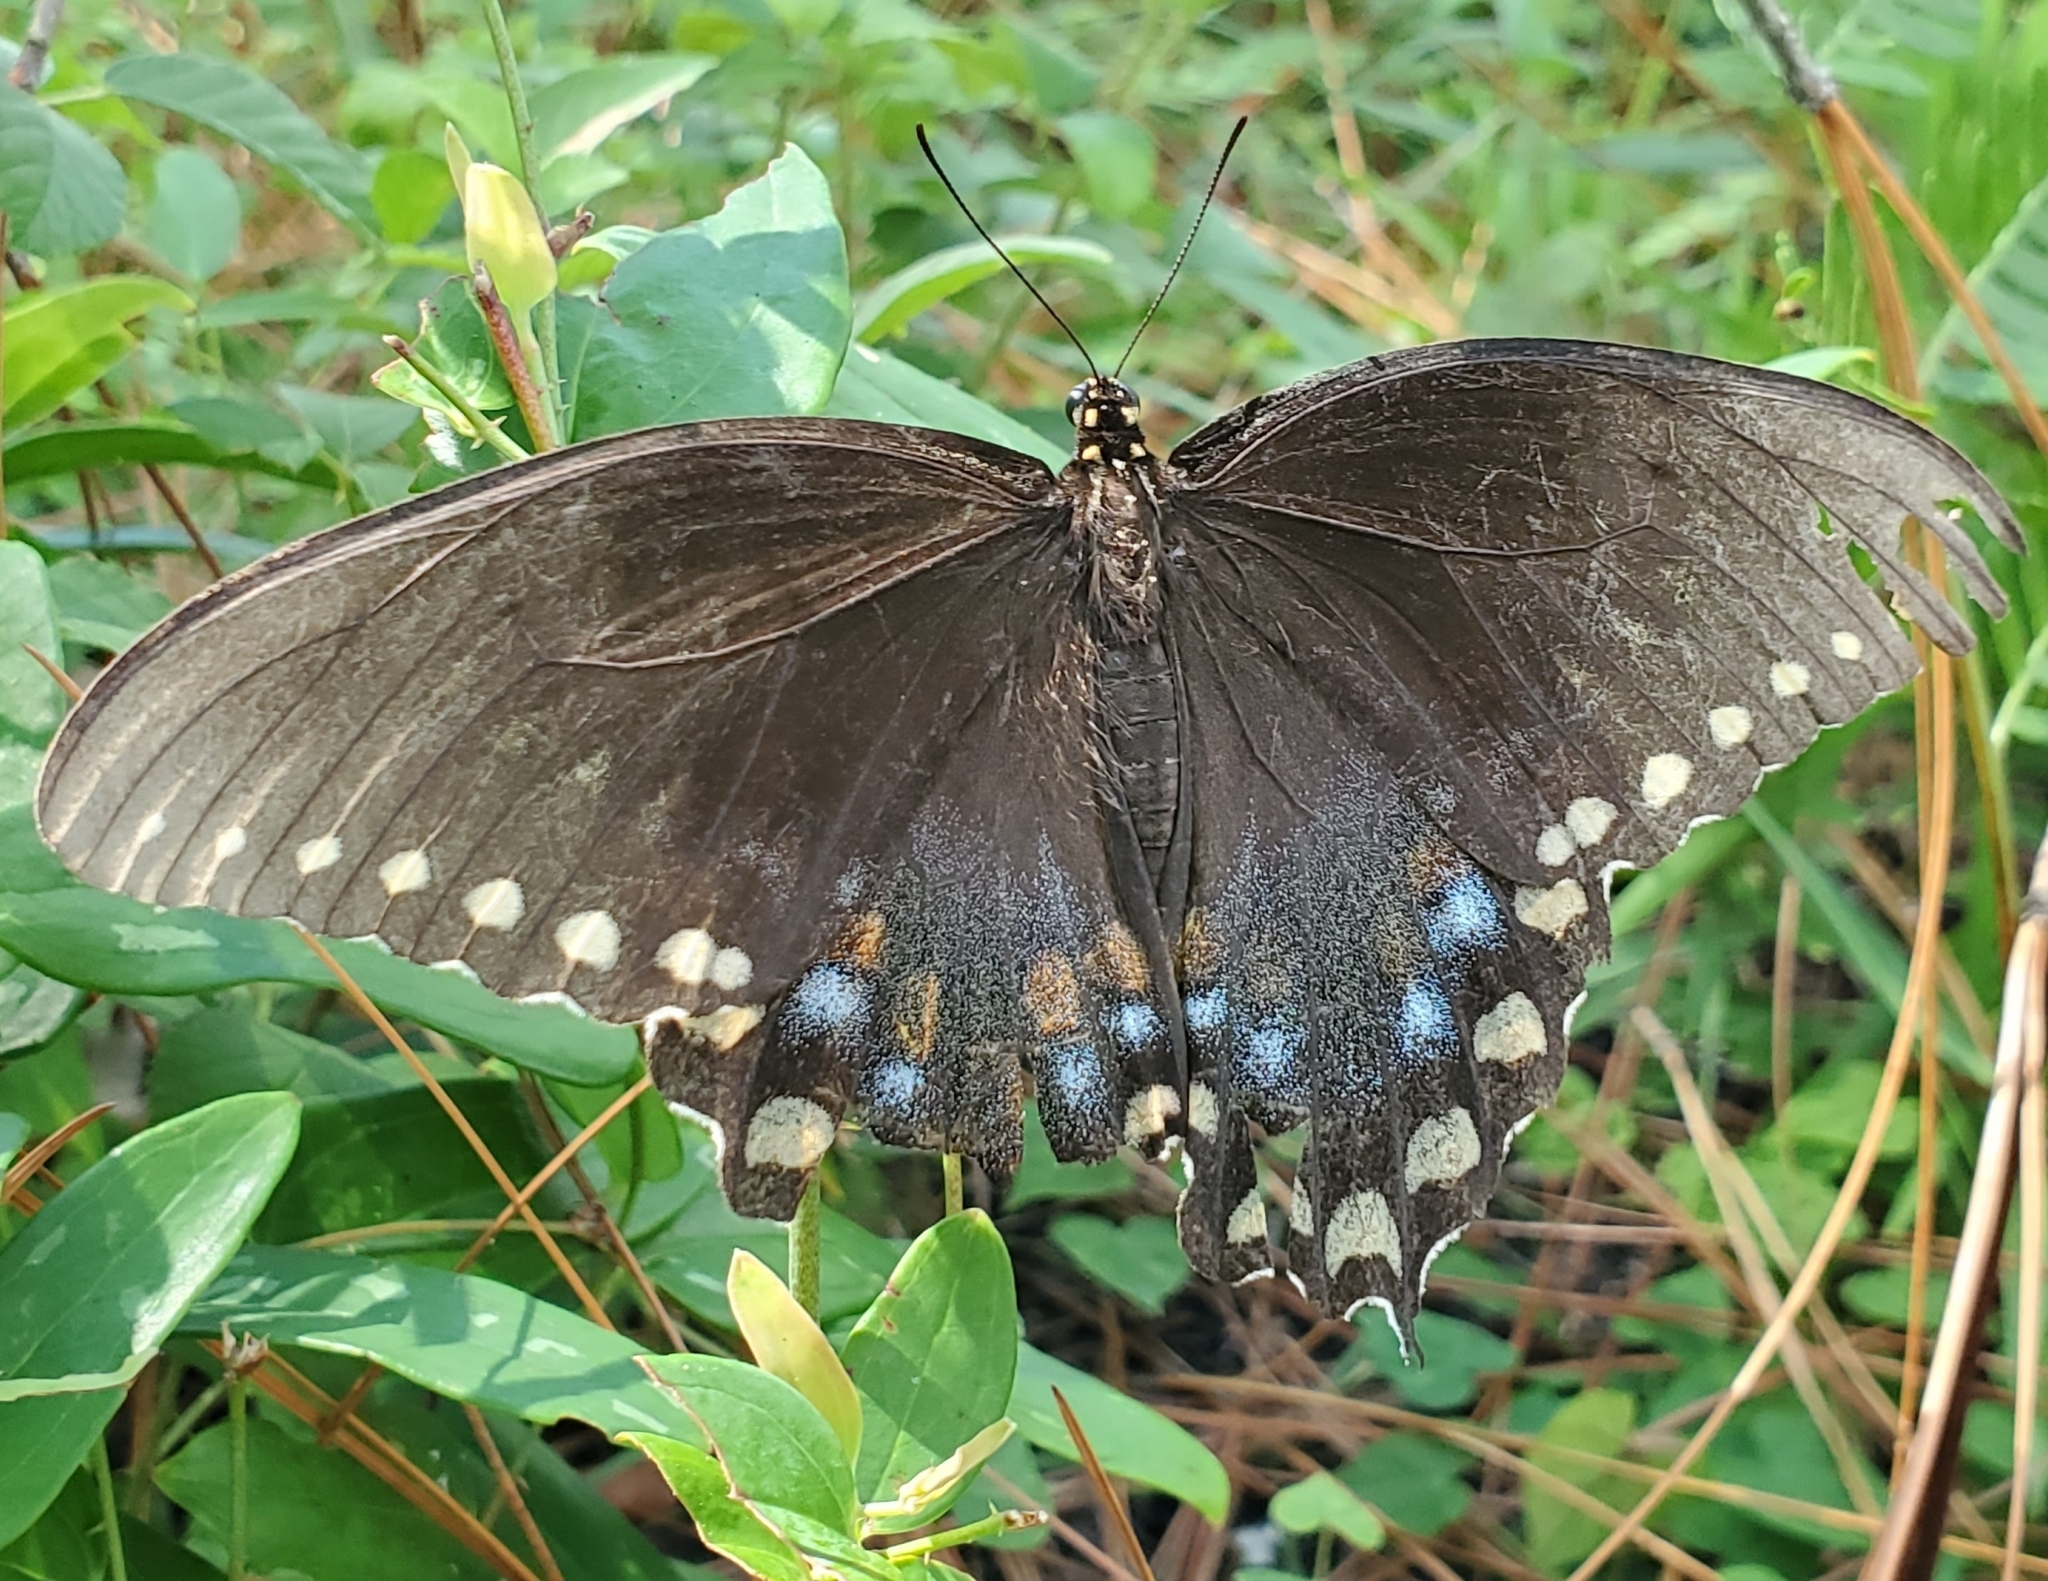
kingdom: Animalia
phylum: Arthropoda
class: Insecta
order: Lepidoptera
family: Papilionidae
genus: Papilio
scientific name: Papilio troilus
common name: Spicebush swallowtail
